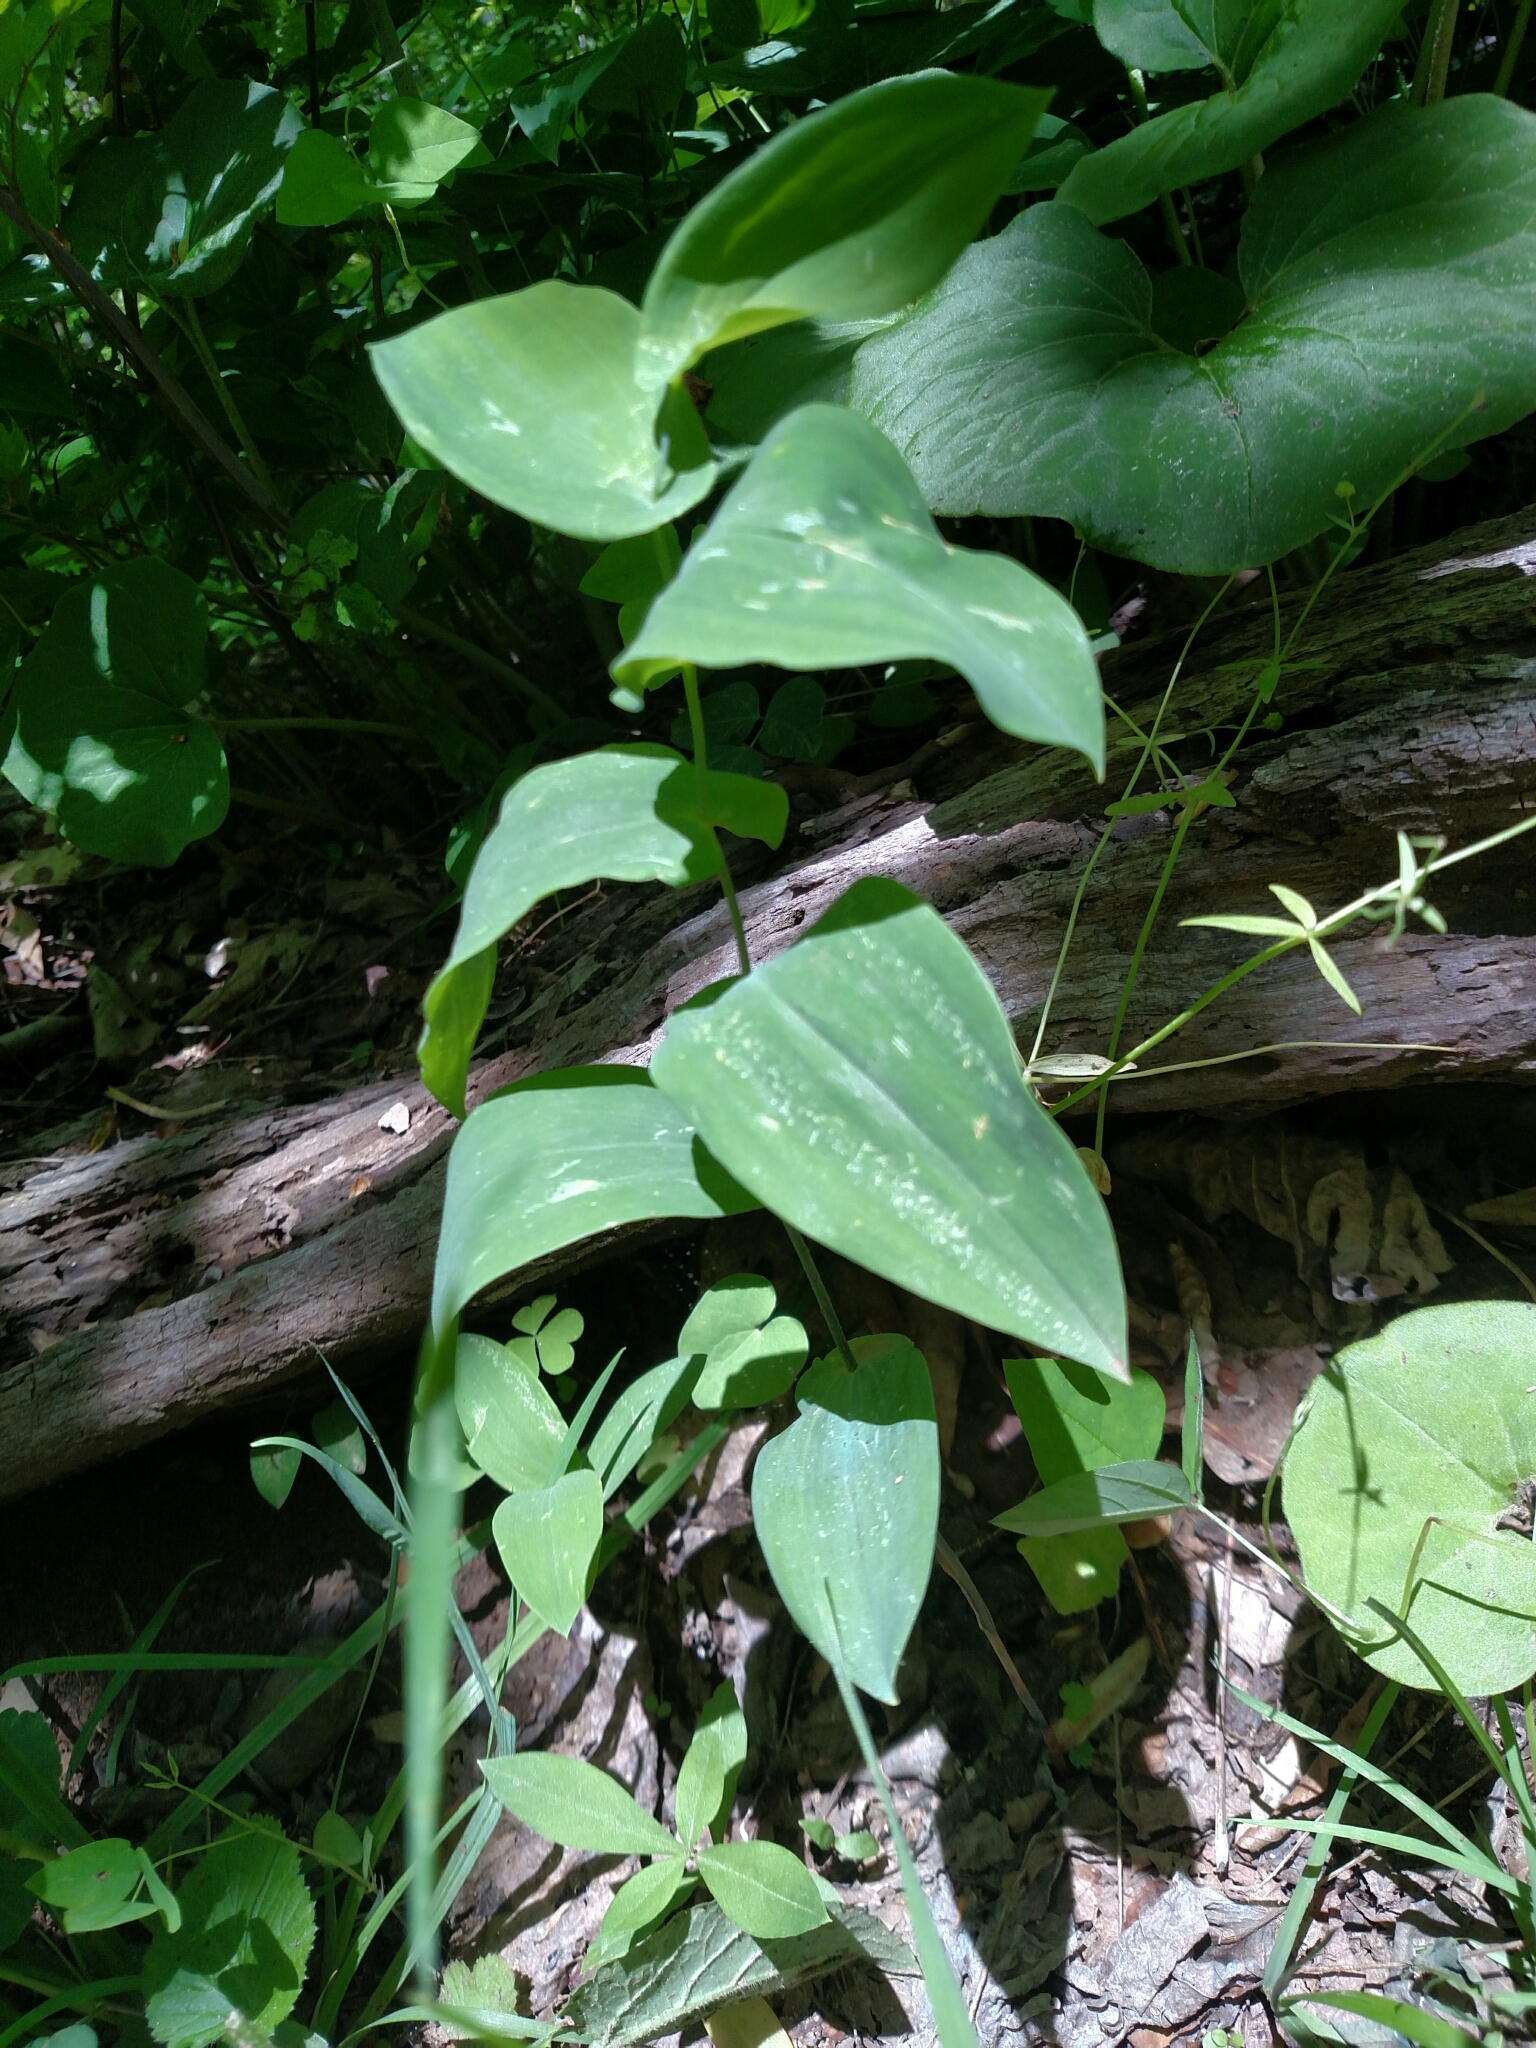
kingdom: Plantae
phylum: Tracheophyta
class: Liliopsida
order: Liliales
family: Colchicaceae
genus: Uvularia
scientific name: Uvularia perfoliata
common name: Perfoliate bellwort
